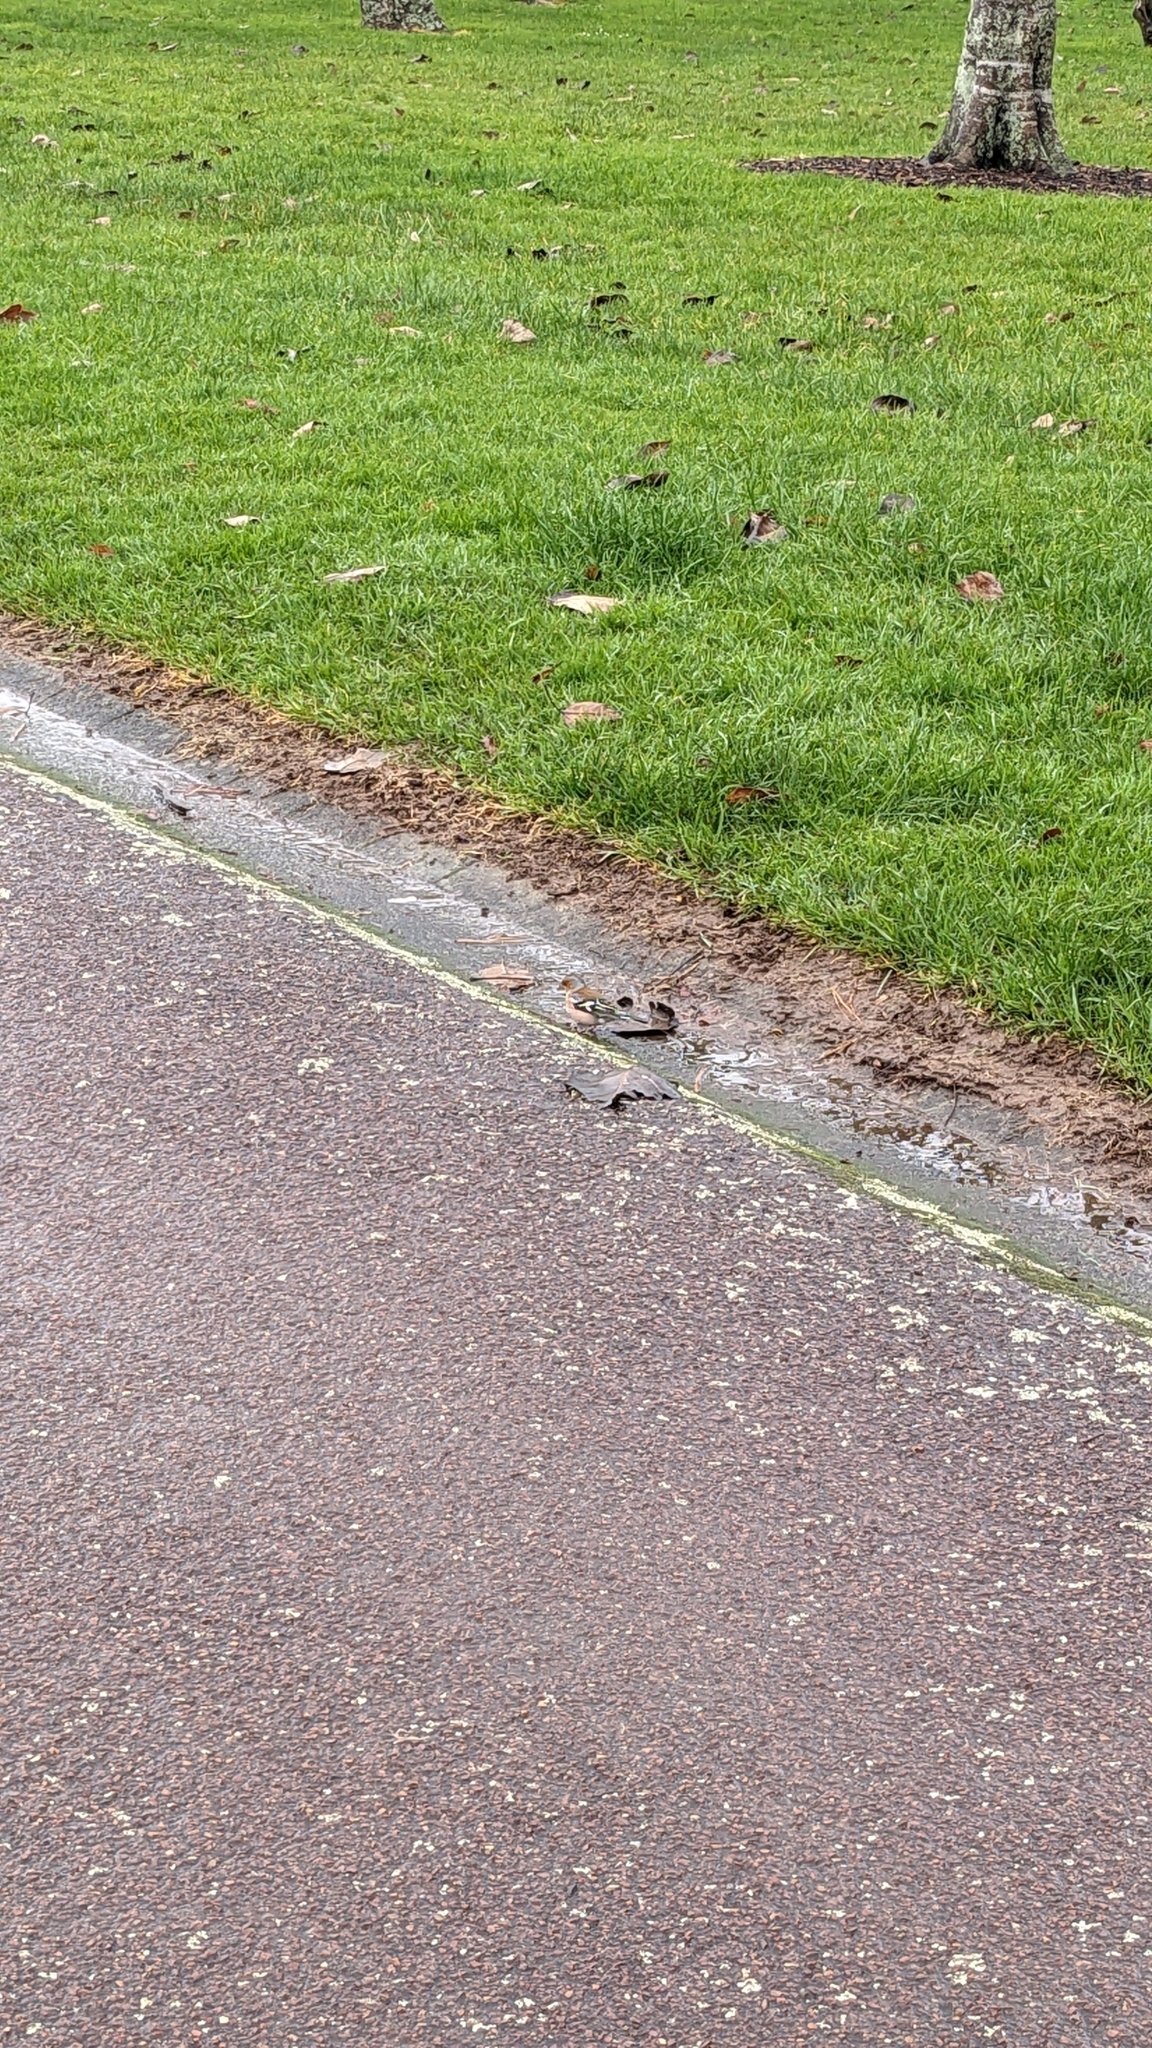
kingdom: Animalia
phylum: Chordata
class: Aves
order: Passeriformes
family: Fringillidae
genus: Fringilla
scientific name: Fringilla coelebs
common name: Common chaffinch
